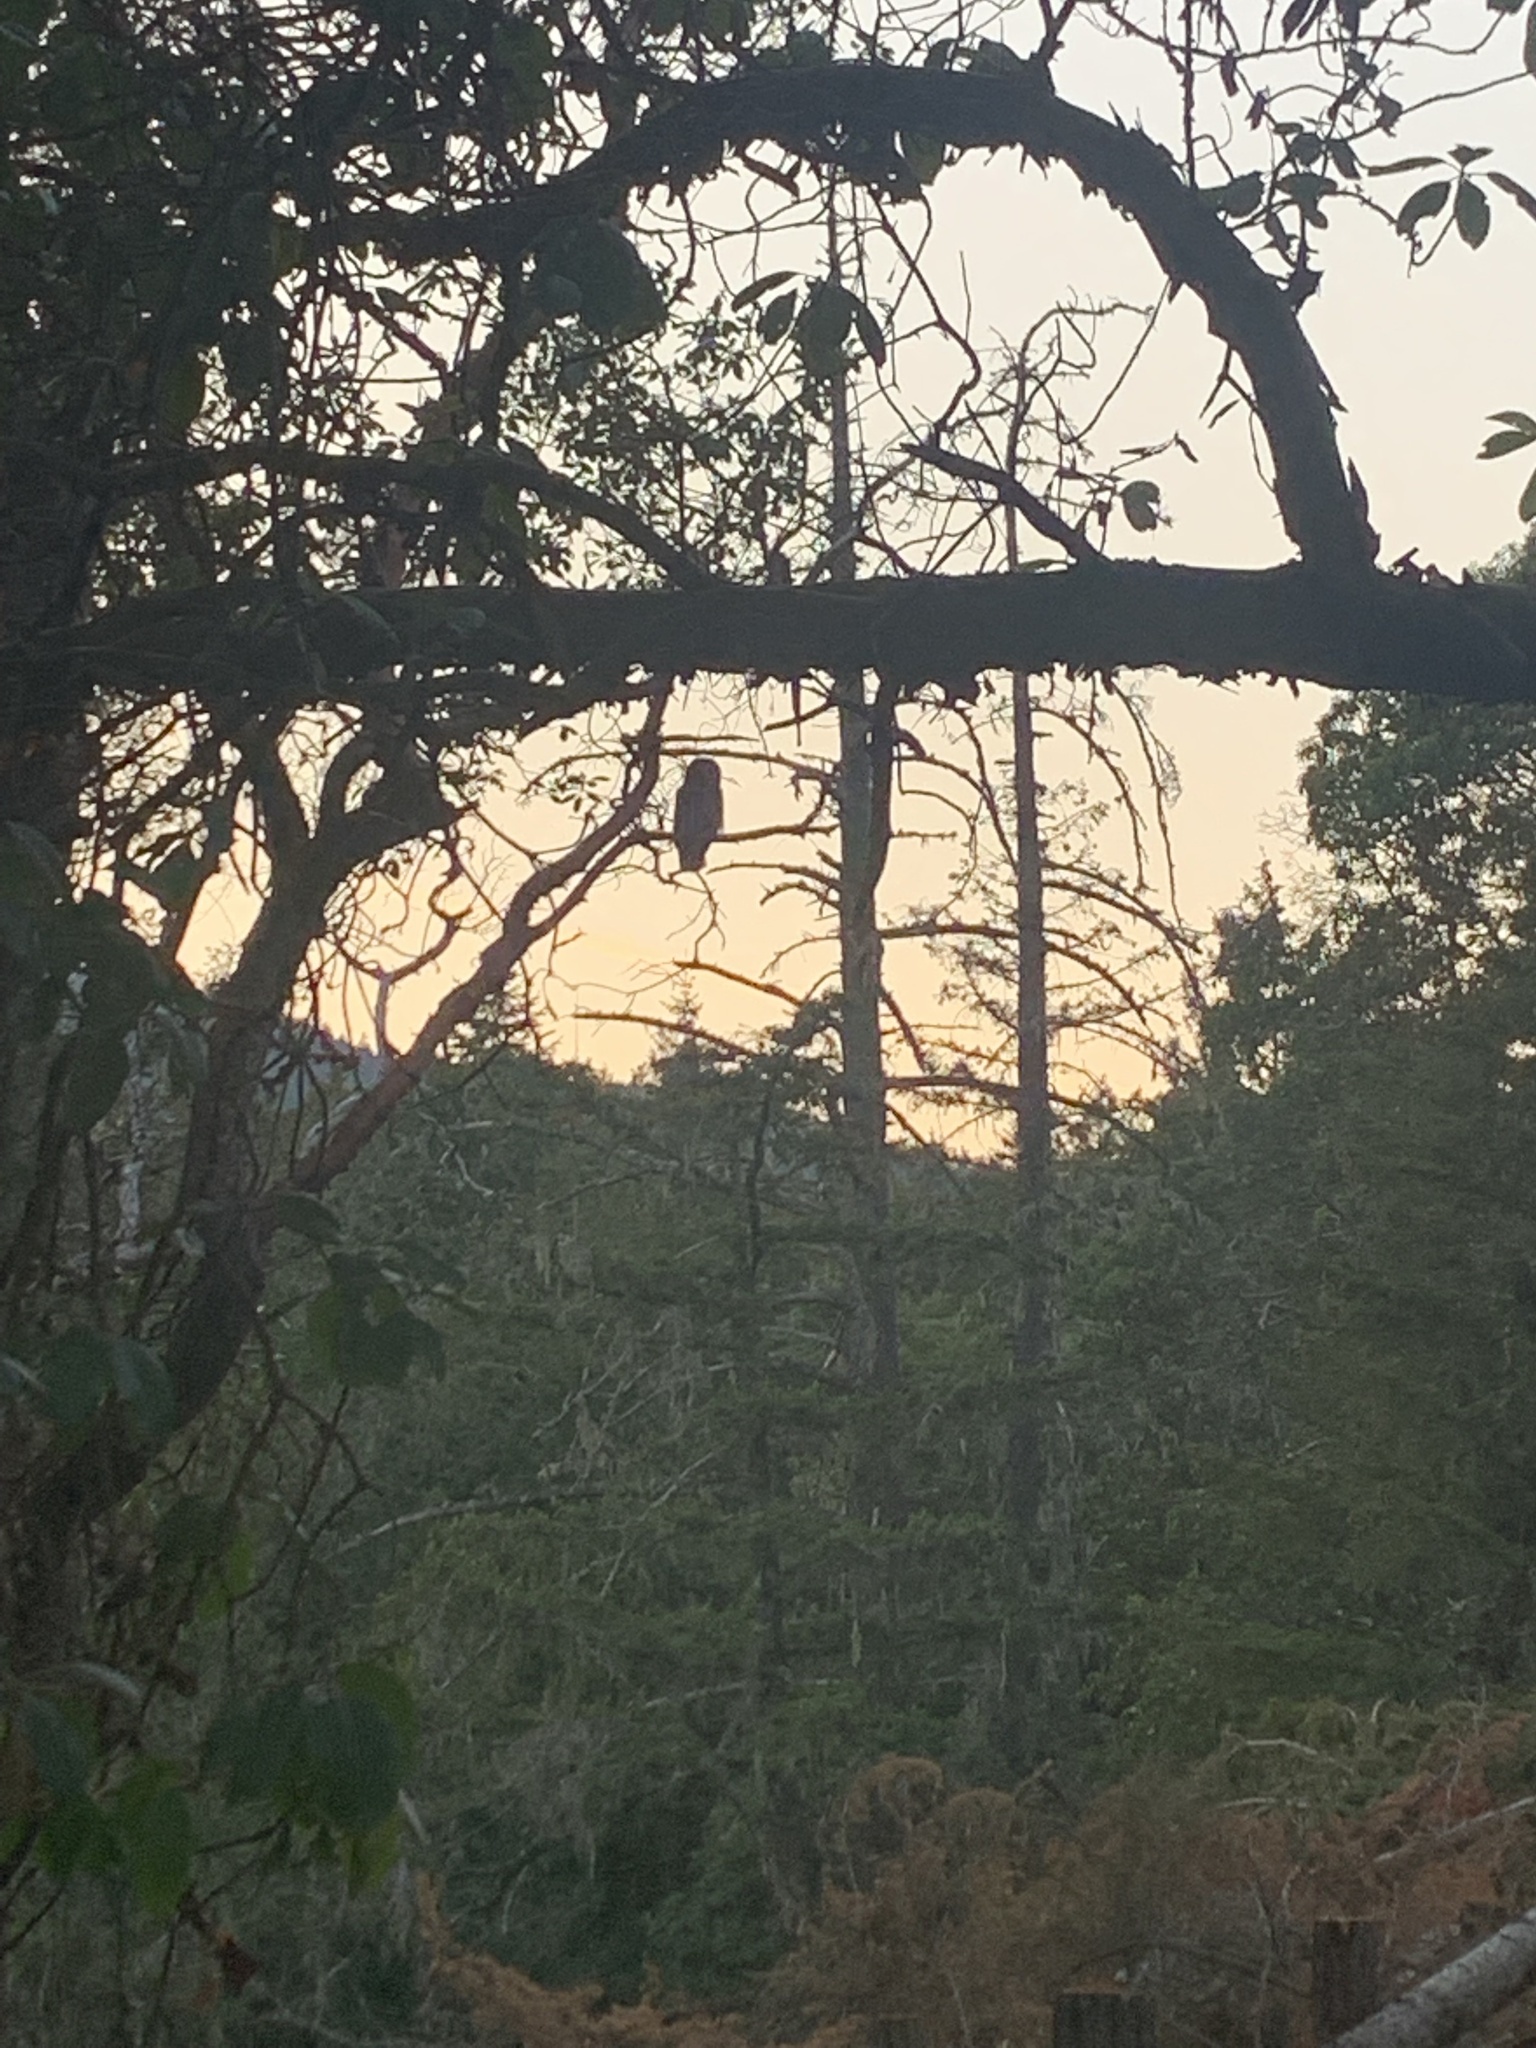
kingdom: Animalia
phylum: Chordata
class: Aves
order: Strigiformes
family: Strigidae
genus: Strix
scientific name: Strix varia
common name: Barred owl
